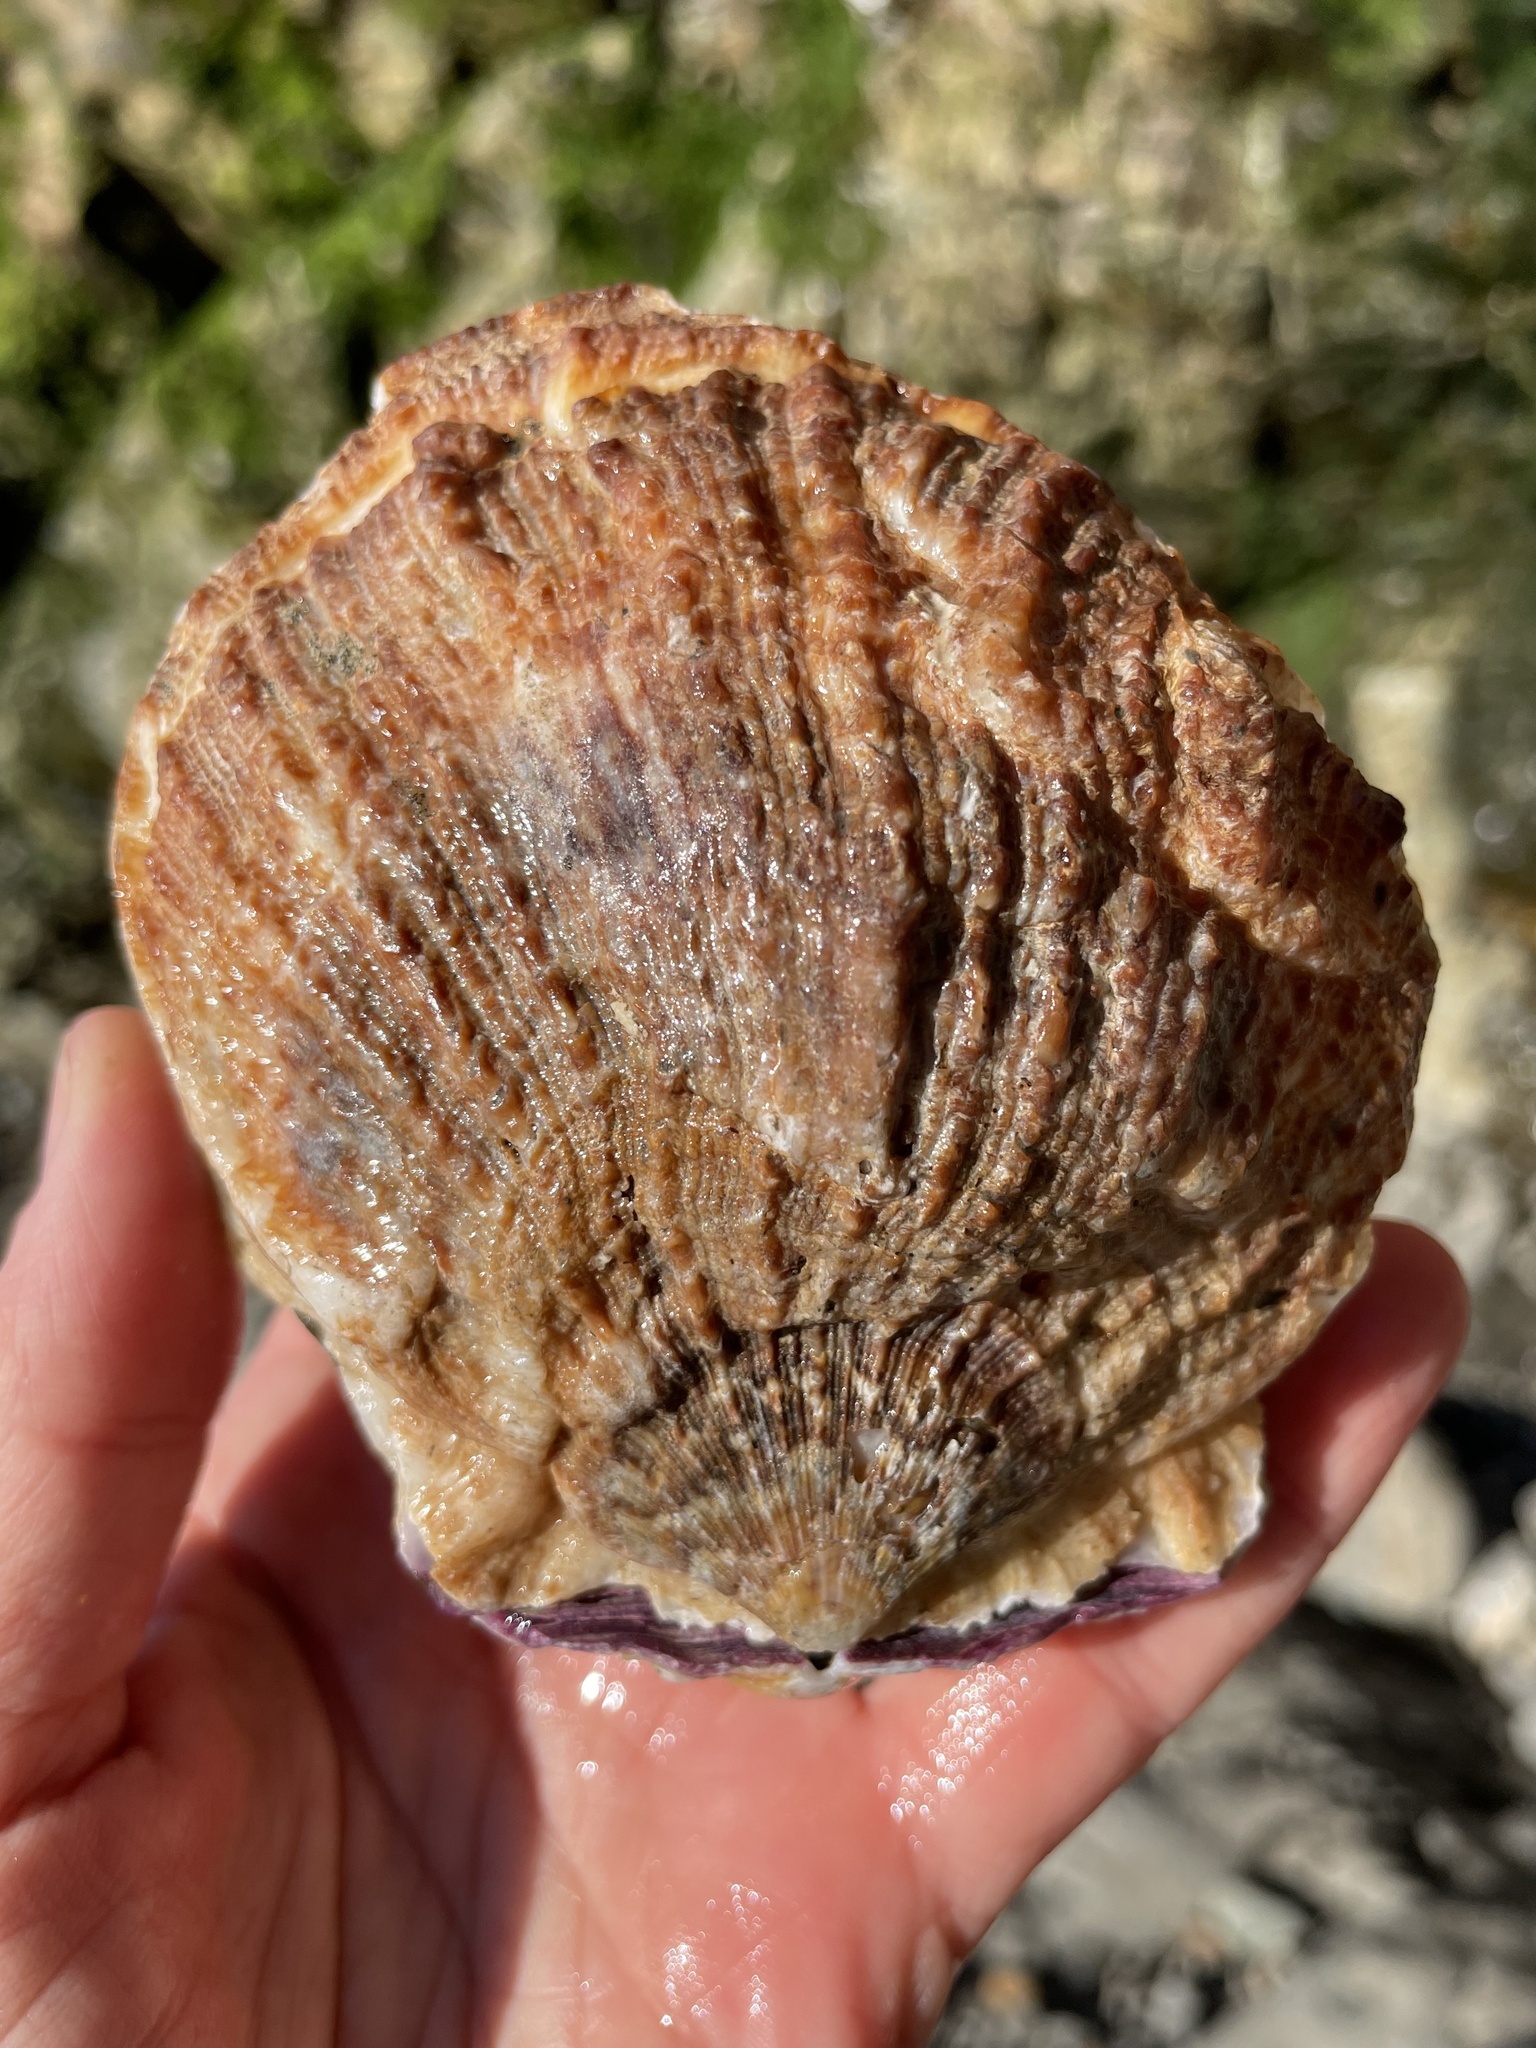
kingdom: Animalia
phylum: Mollusca
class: Bivalvia
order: Pectinida
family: Pectinidae
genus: Crassadoma
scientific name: Crassadoma gigantea
